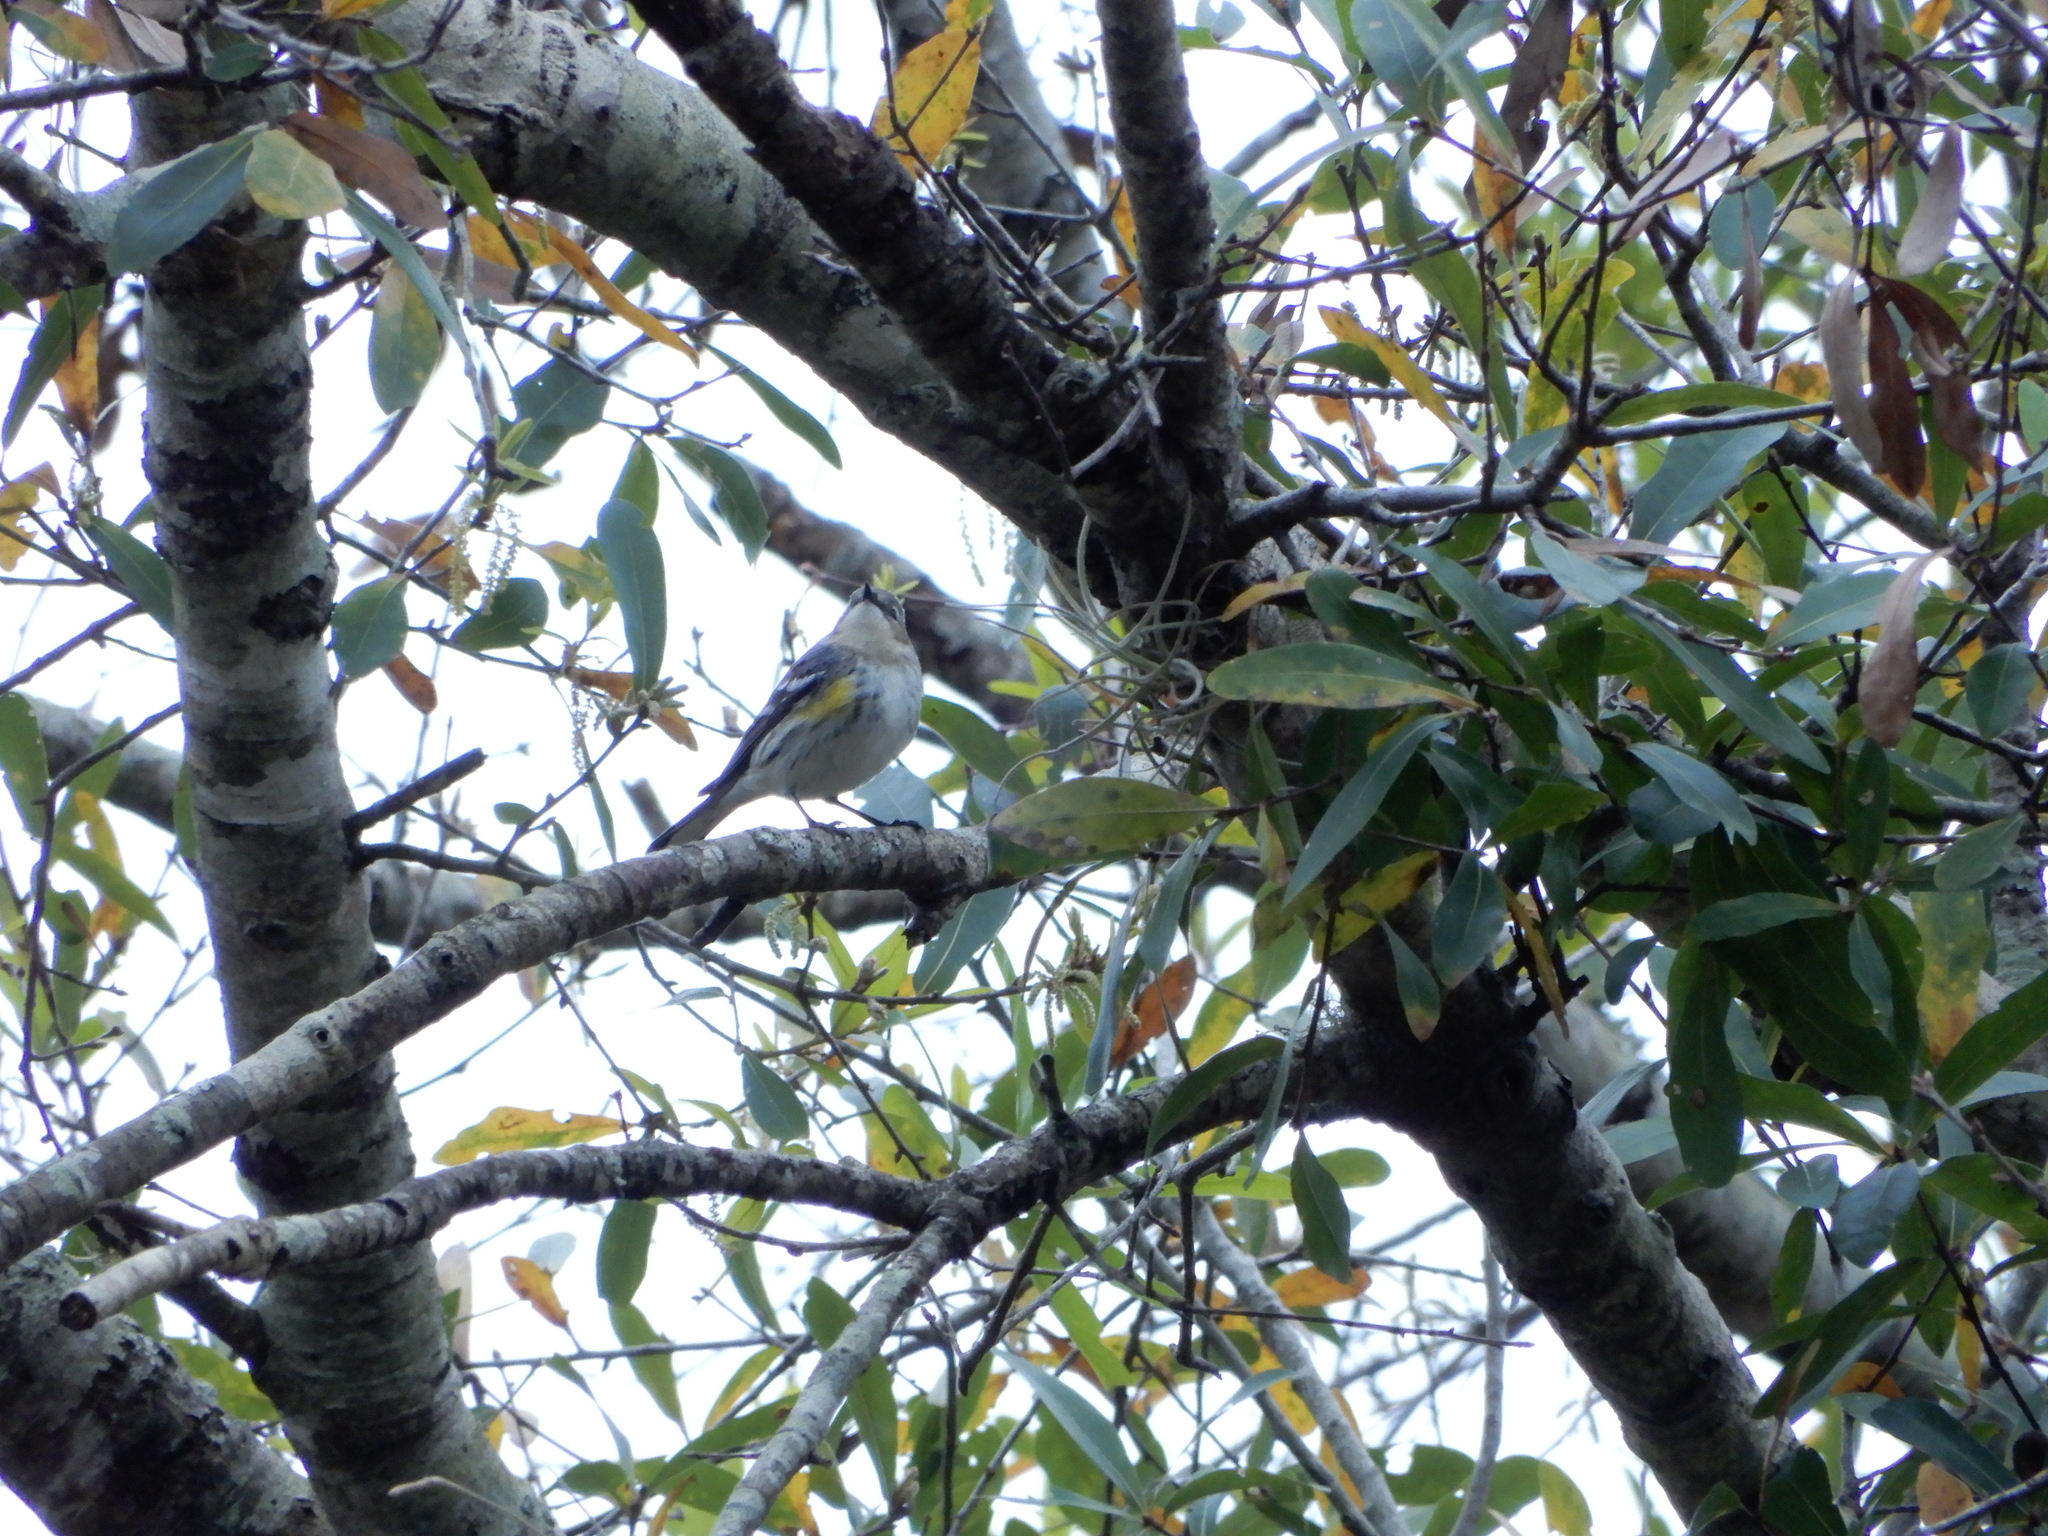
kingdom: Animalia
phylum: Chordata
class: Aves
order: Passeriformes
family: Parulidae
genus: Setophaga
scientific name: Setophaga coronata
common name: Myrtle warbler
